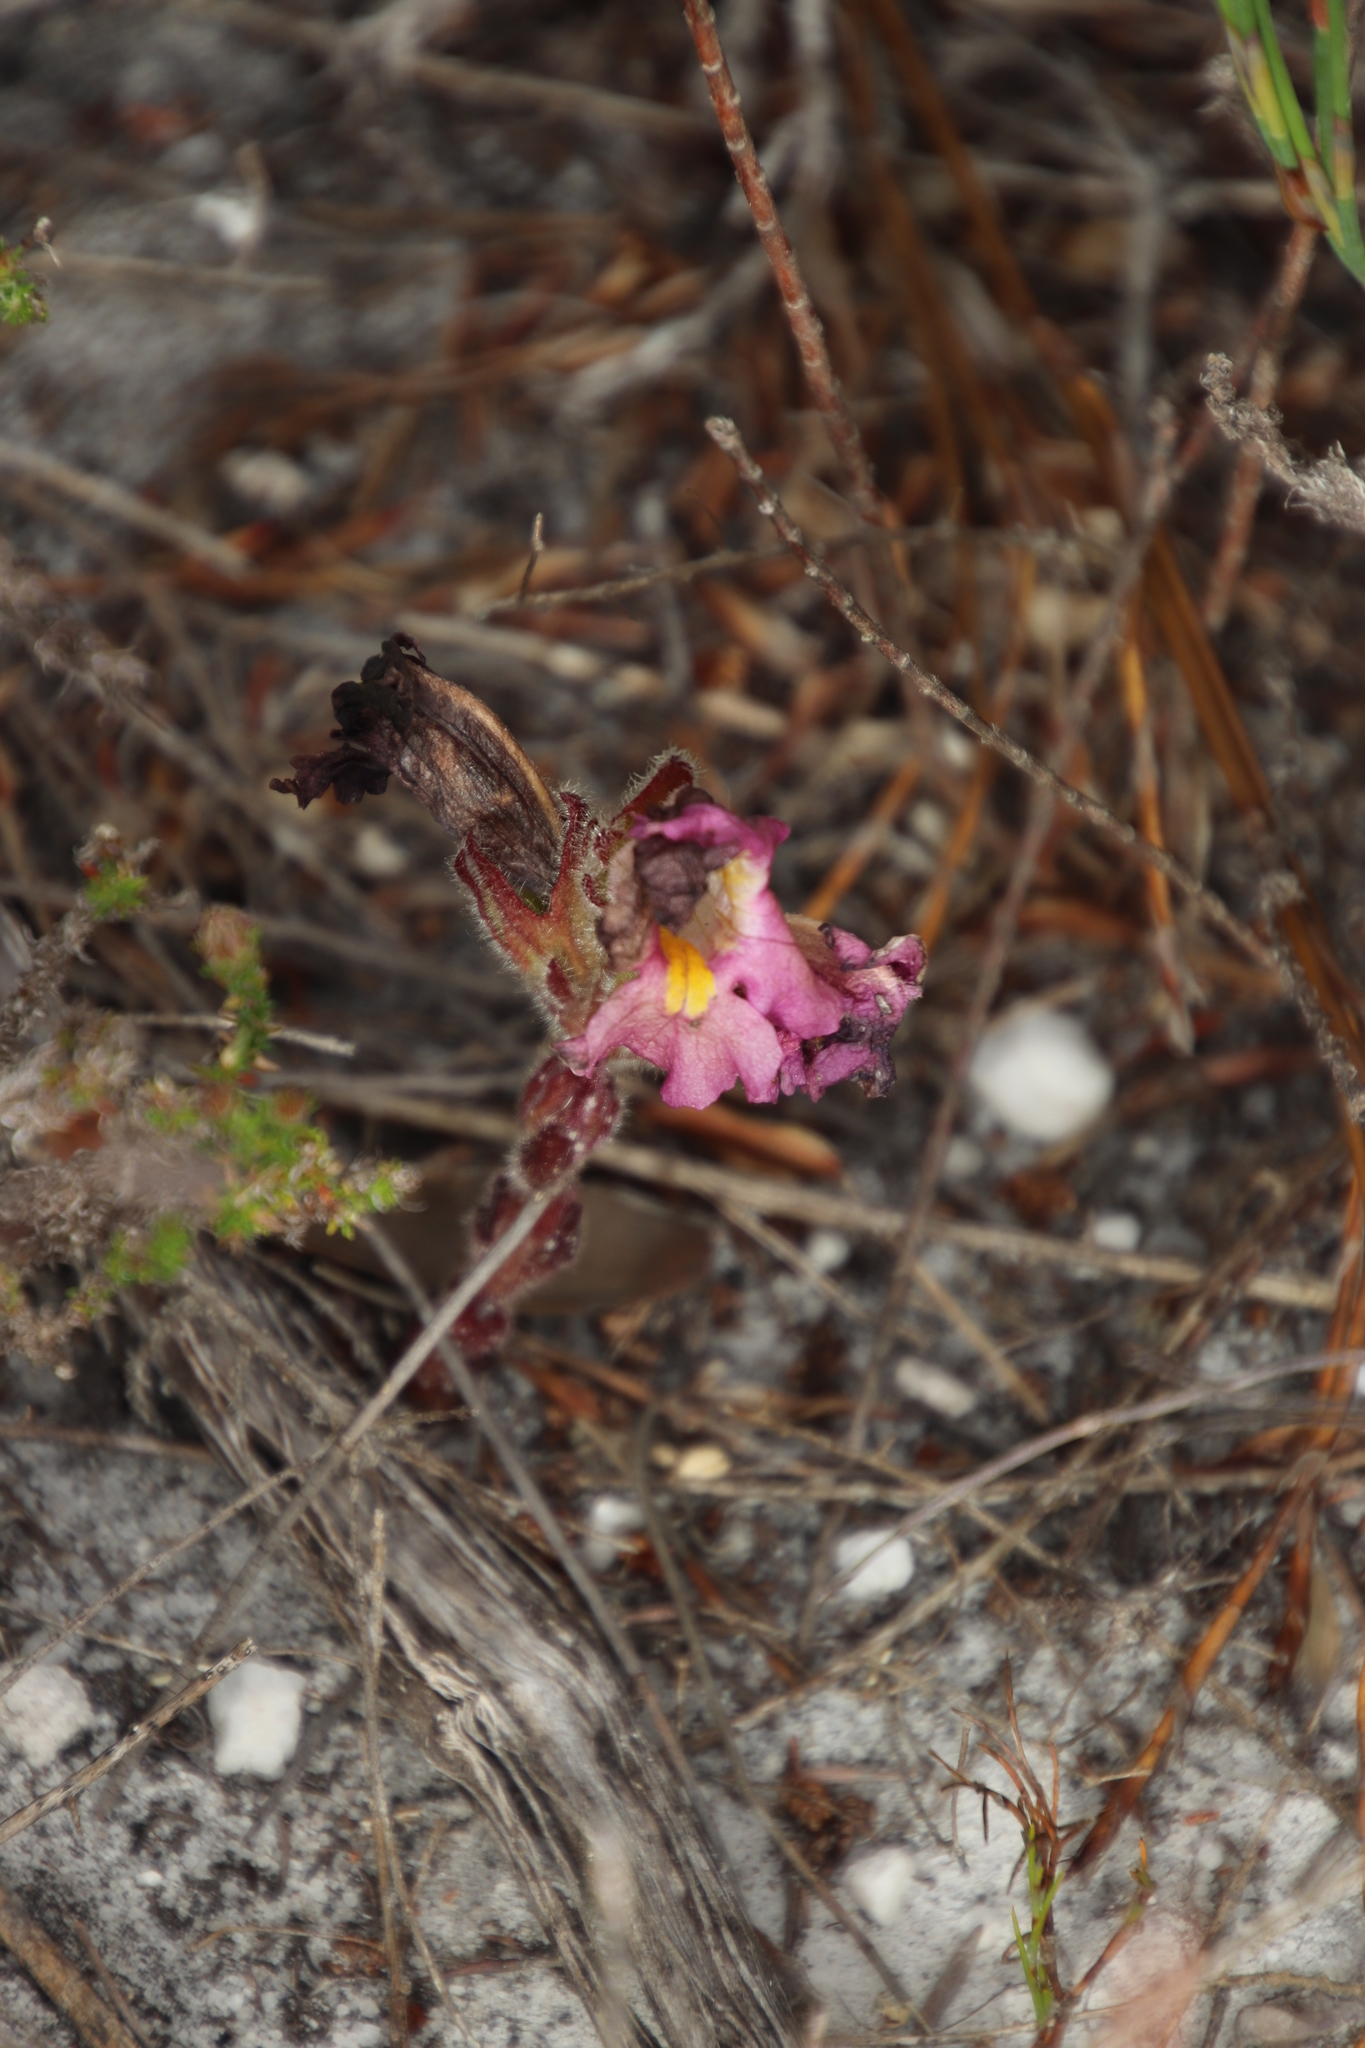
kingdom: Plantae
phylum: Tracheophyta
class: Magnoliopsida
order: Lamiales
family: Orobanchaceae
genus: Harveya
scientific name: Harveya purpurea
